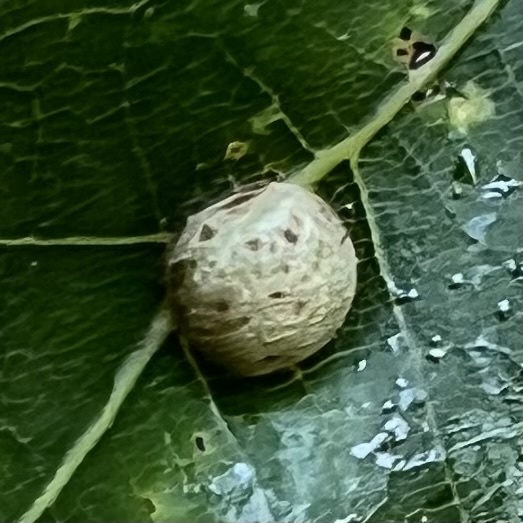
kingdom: Animalia
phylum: Arthropoda
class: Insecta
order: Diptera
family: Cecidomyiidae
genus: Polystepha
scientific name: Polystepha pilulae
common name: Oak leaf gall midge
